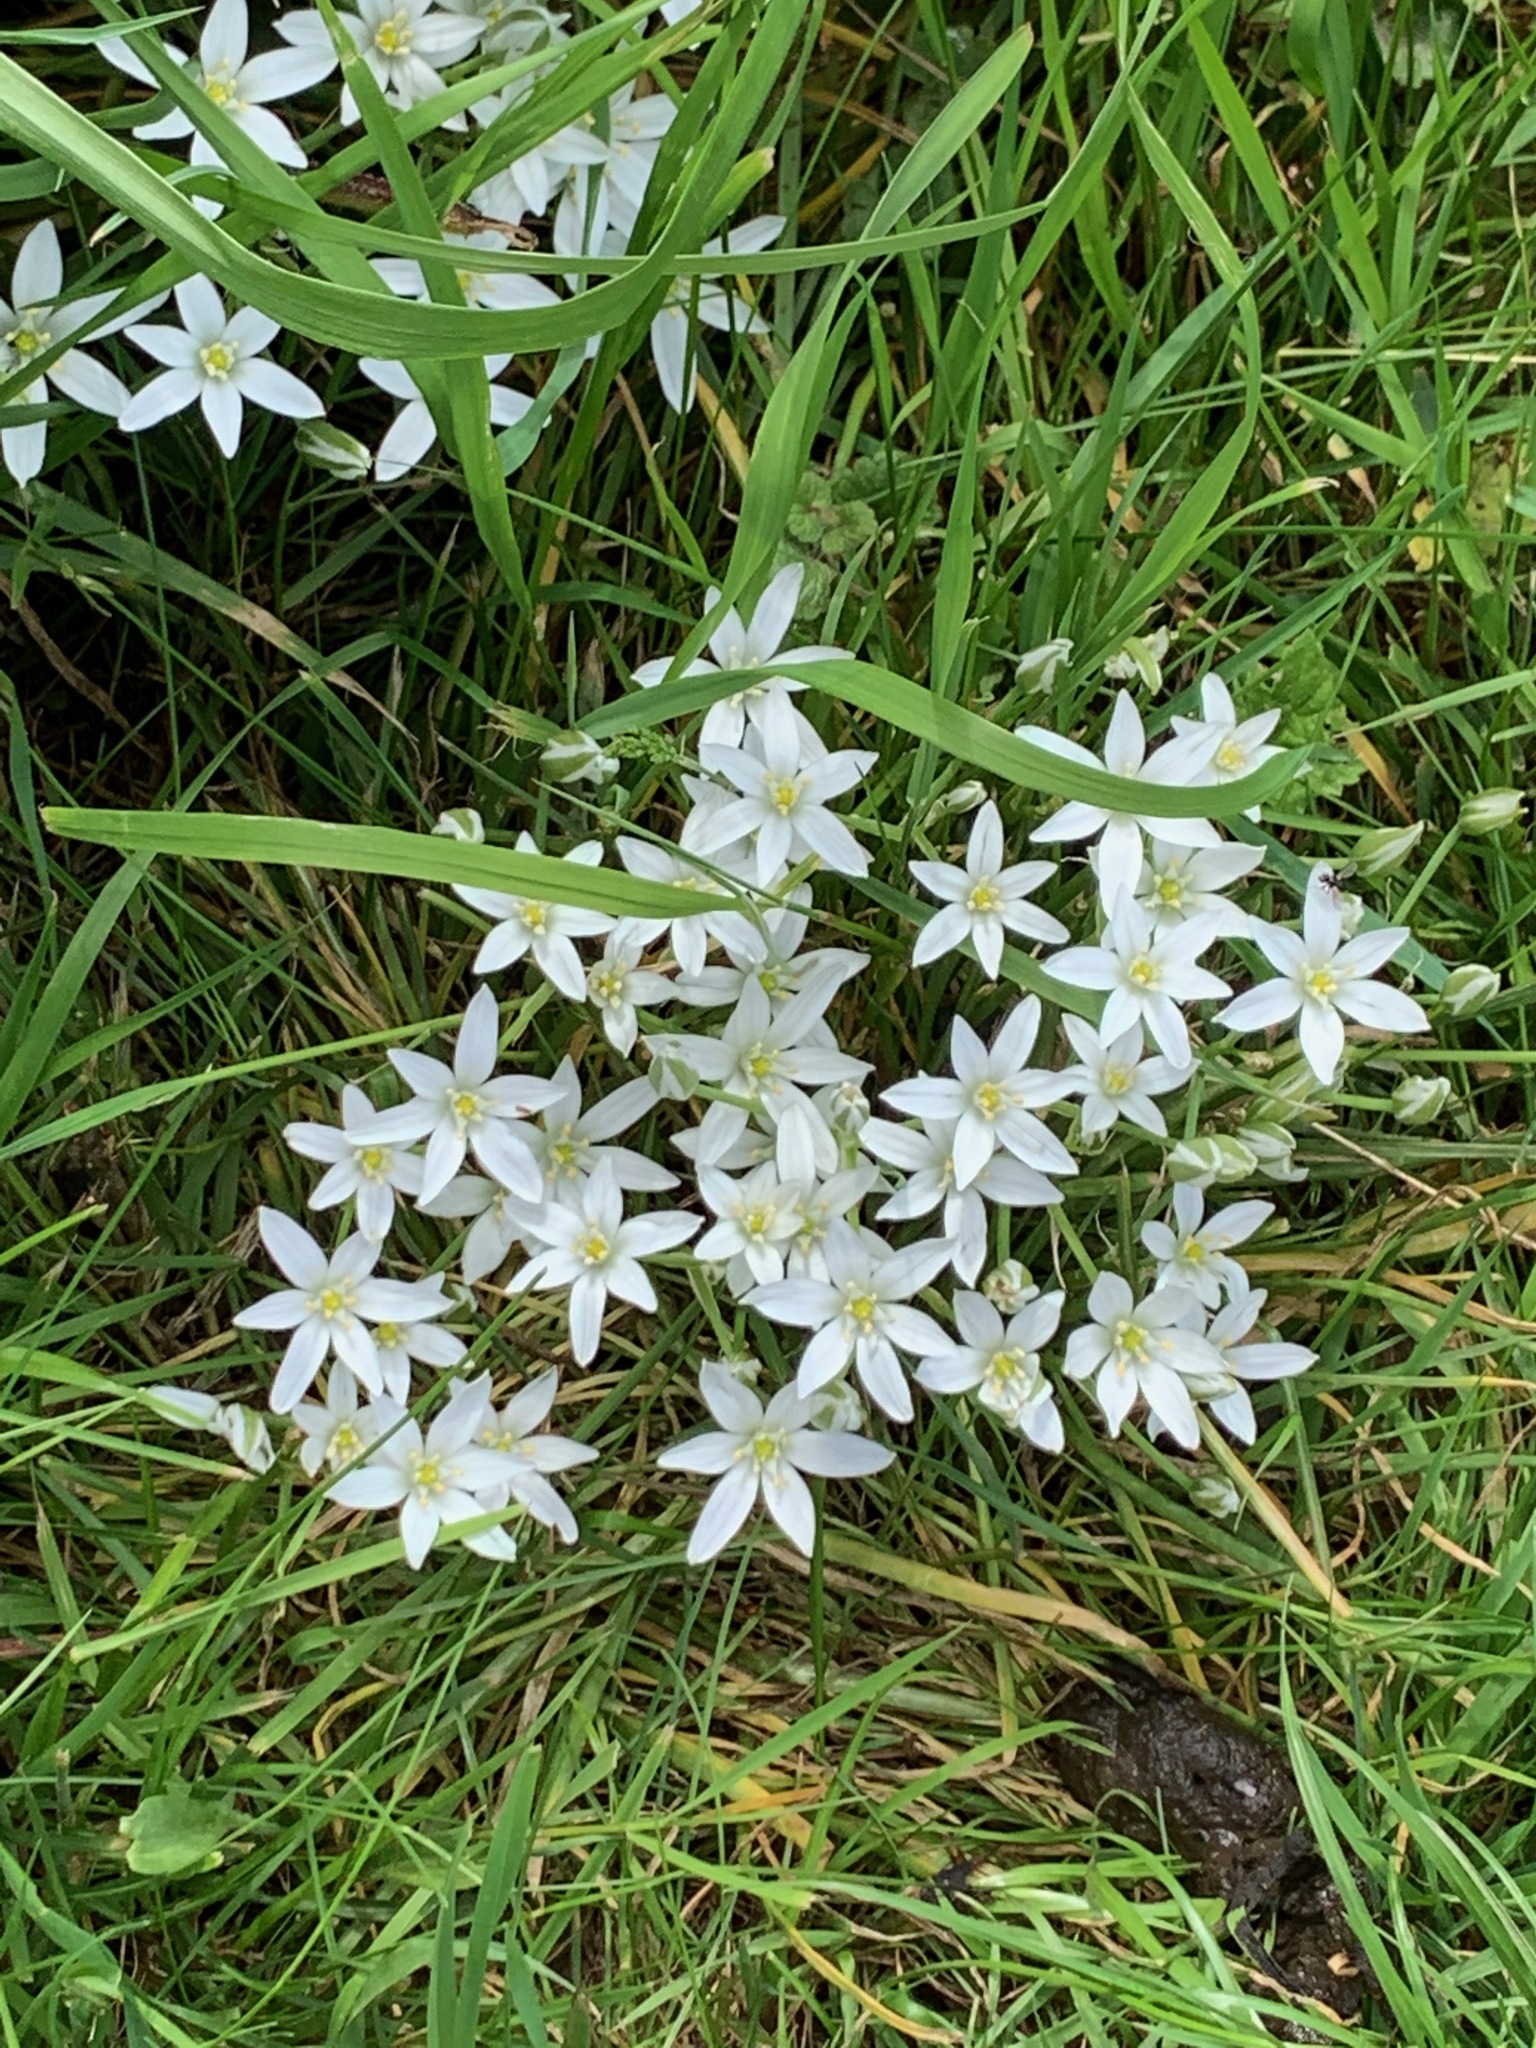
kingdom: Plantae
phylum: Tracheophyta
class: Liliopsida
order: Asparagales
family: Asparagaceae
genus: Ornithogalum
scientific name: Ornithogalum umbellatum
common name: Garden star-of-bethlehem
